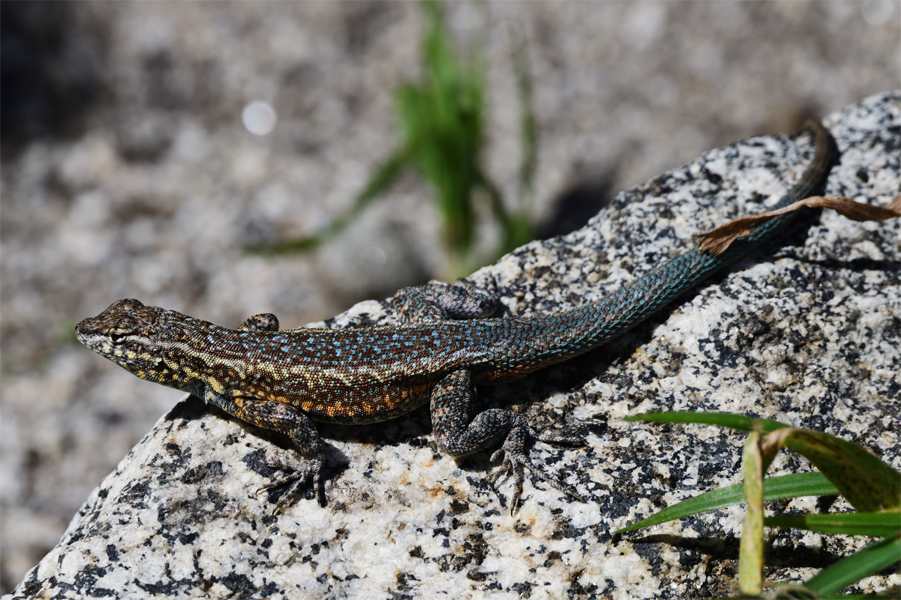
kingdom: Animalia
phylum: Chordata
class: Squamata
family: Phrynosomatidae
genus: Uta
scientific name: Uta stansburiana
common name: Side-blotched lizard
